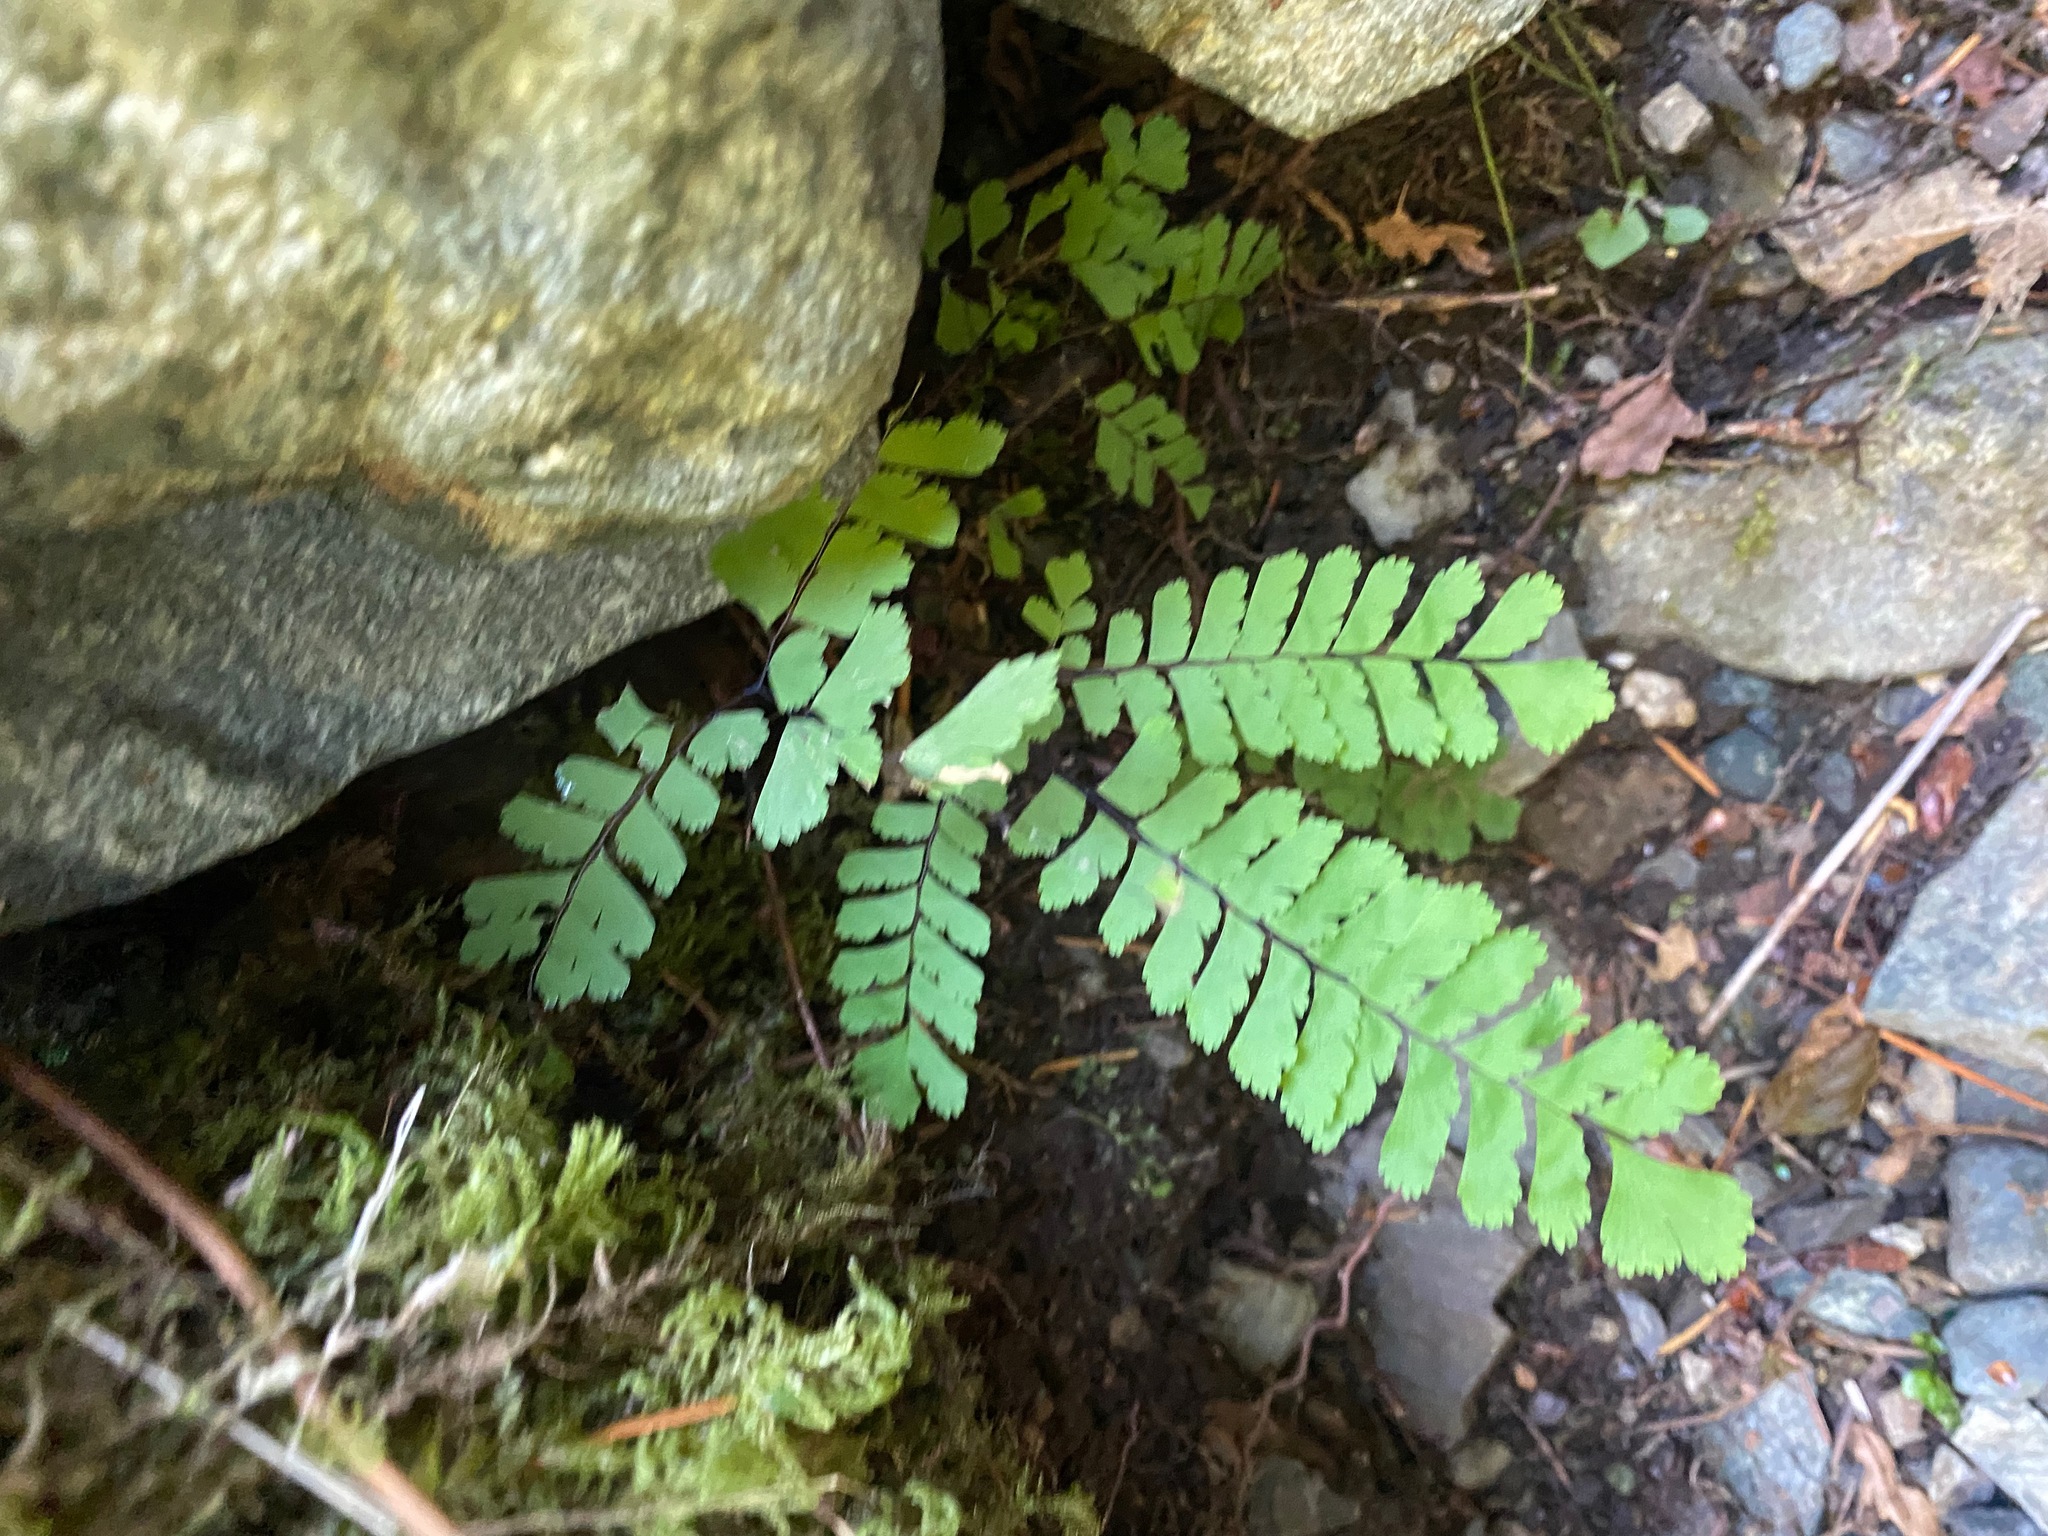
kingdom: Plantae
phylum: Tracheophyta
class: Polypodiopsida
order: Polypodiales
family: Pteridaceae
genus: Adiantum
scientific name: Adiantum aleuticum
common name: Aleutian maidenhair fern
